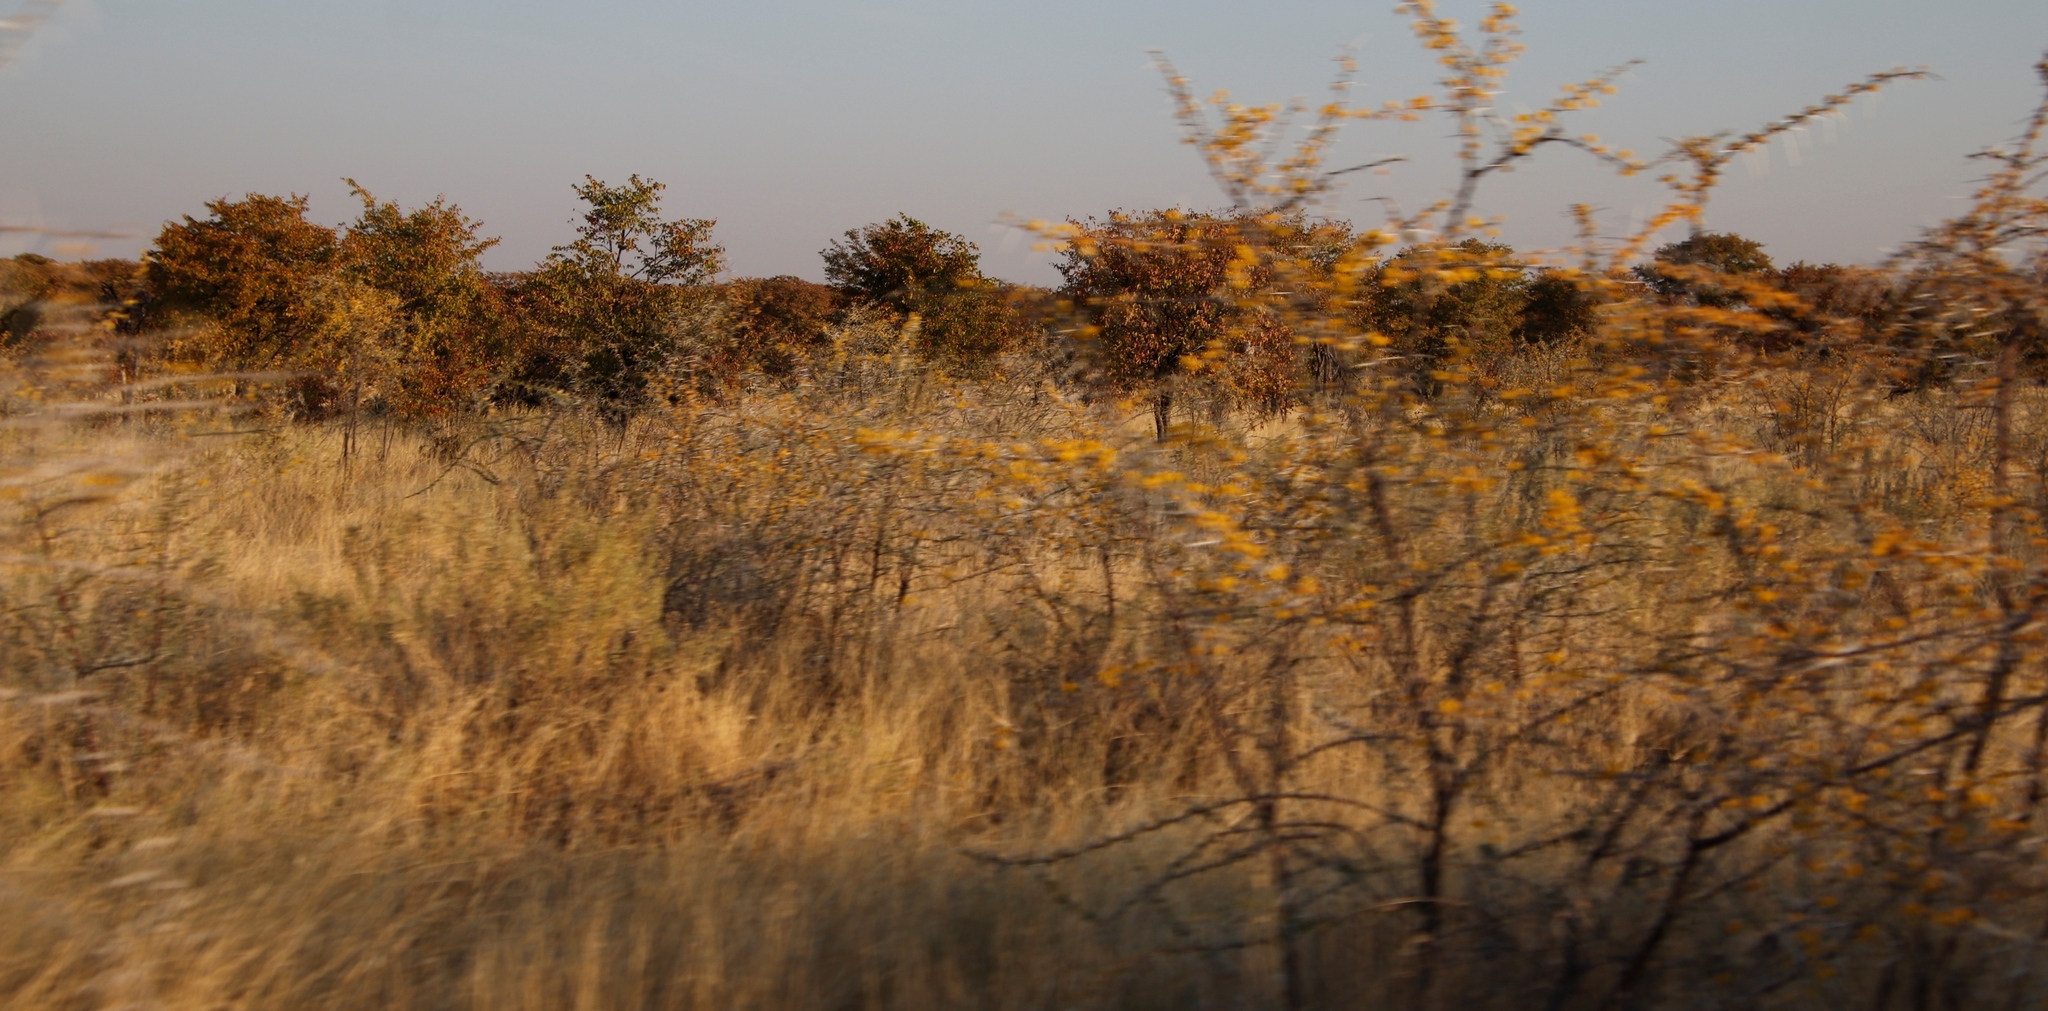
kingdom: Plantae
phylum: Tracheophyta
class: Magnoliopsida
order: Fabales
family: Fabaceae
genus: Vachellia
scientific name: Vachellia nebrownii
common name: Water acacia
